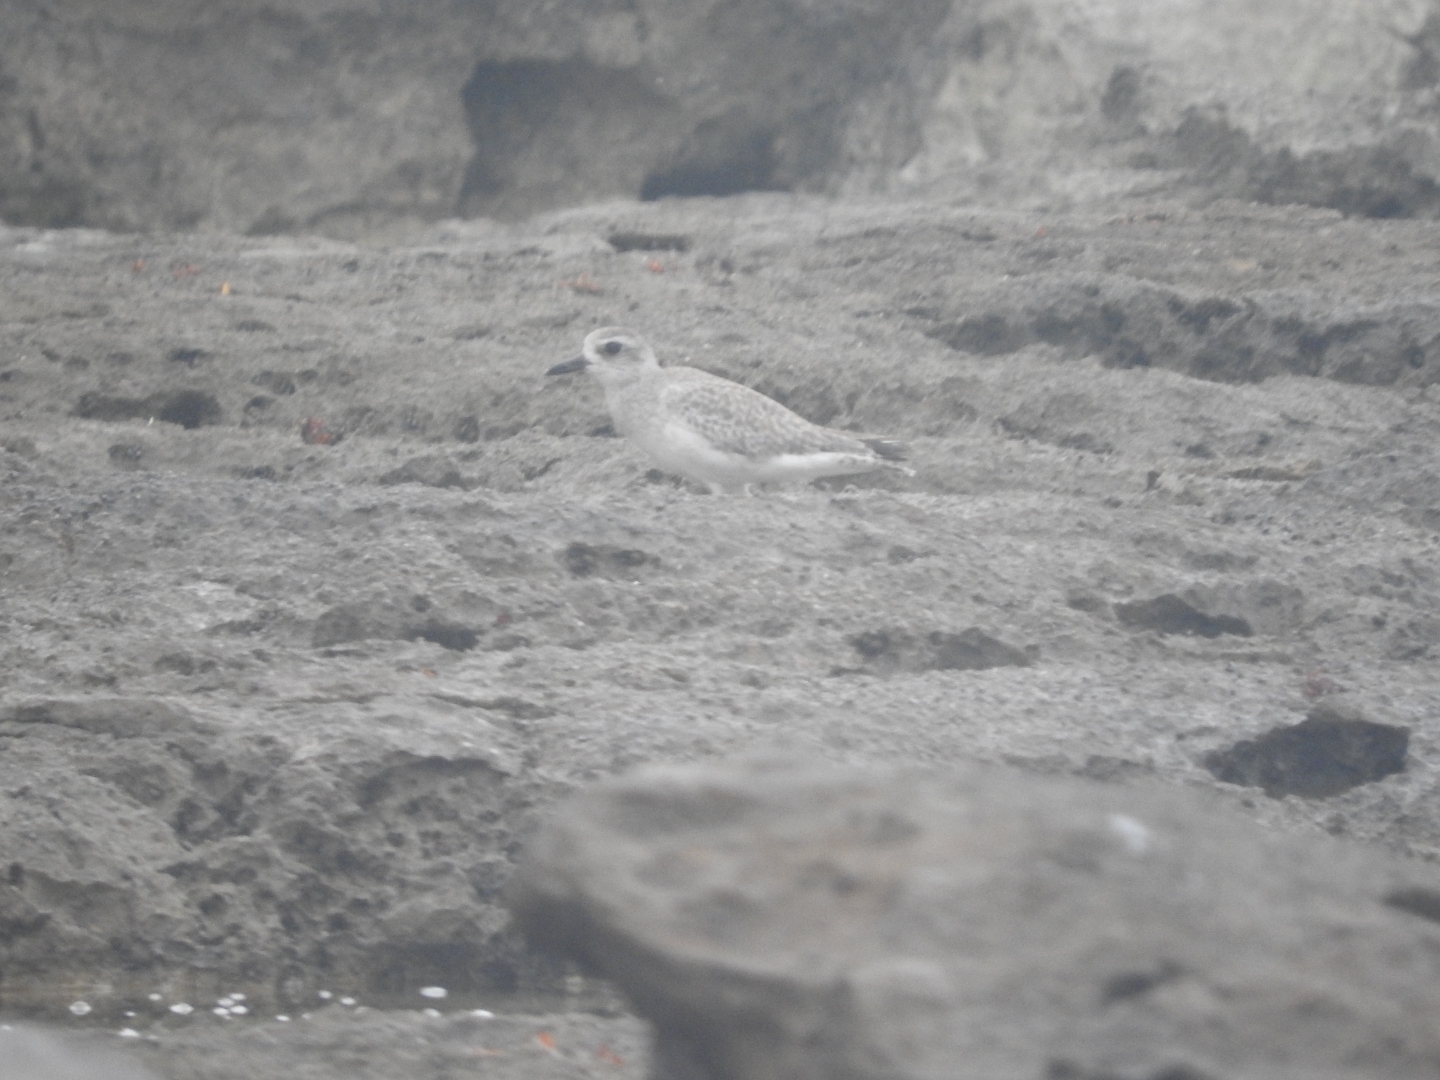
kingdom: Animalia
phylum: Chordata
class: Aves
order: Charadriiformes
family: Charadriidae
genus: Pluvialis
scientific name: Pluvialis squatarola
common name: Grey plover
